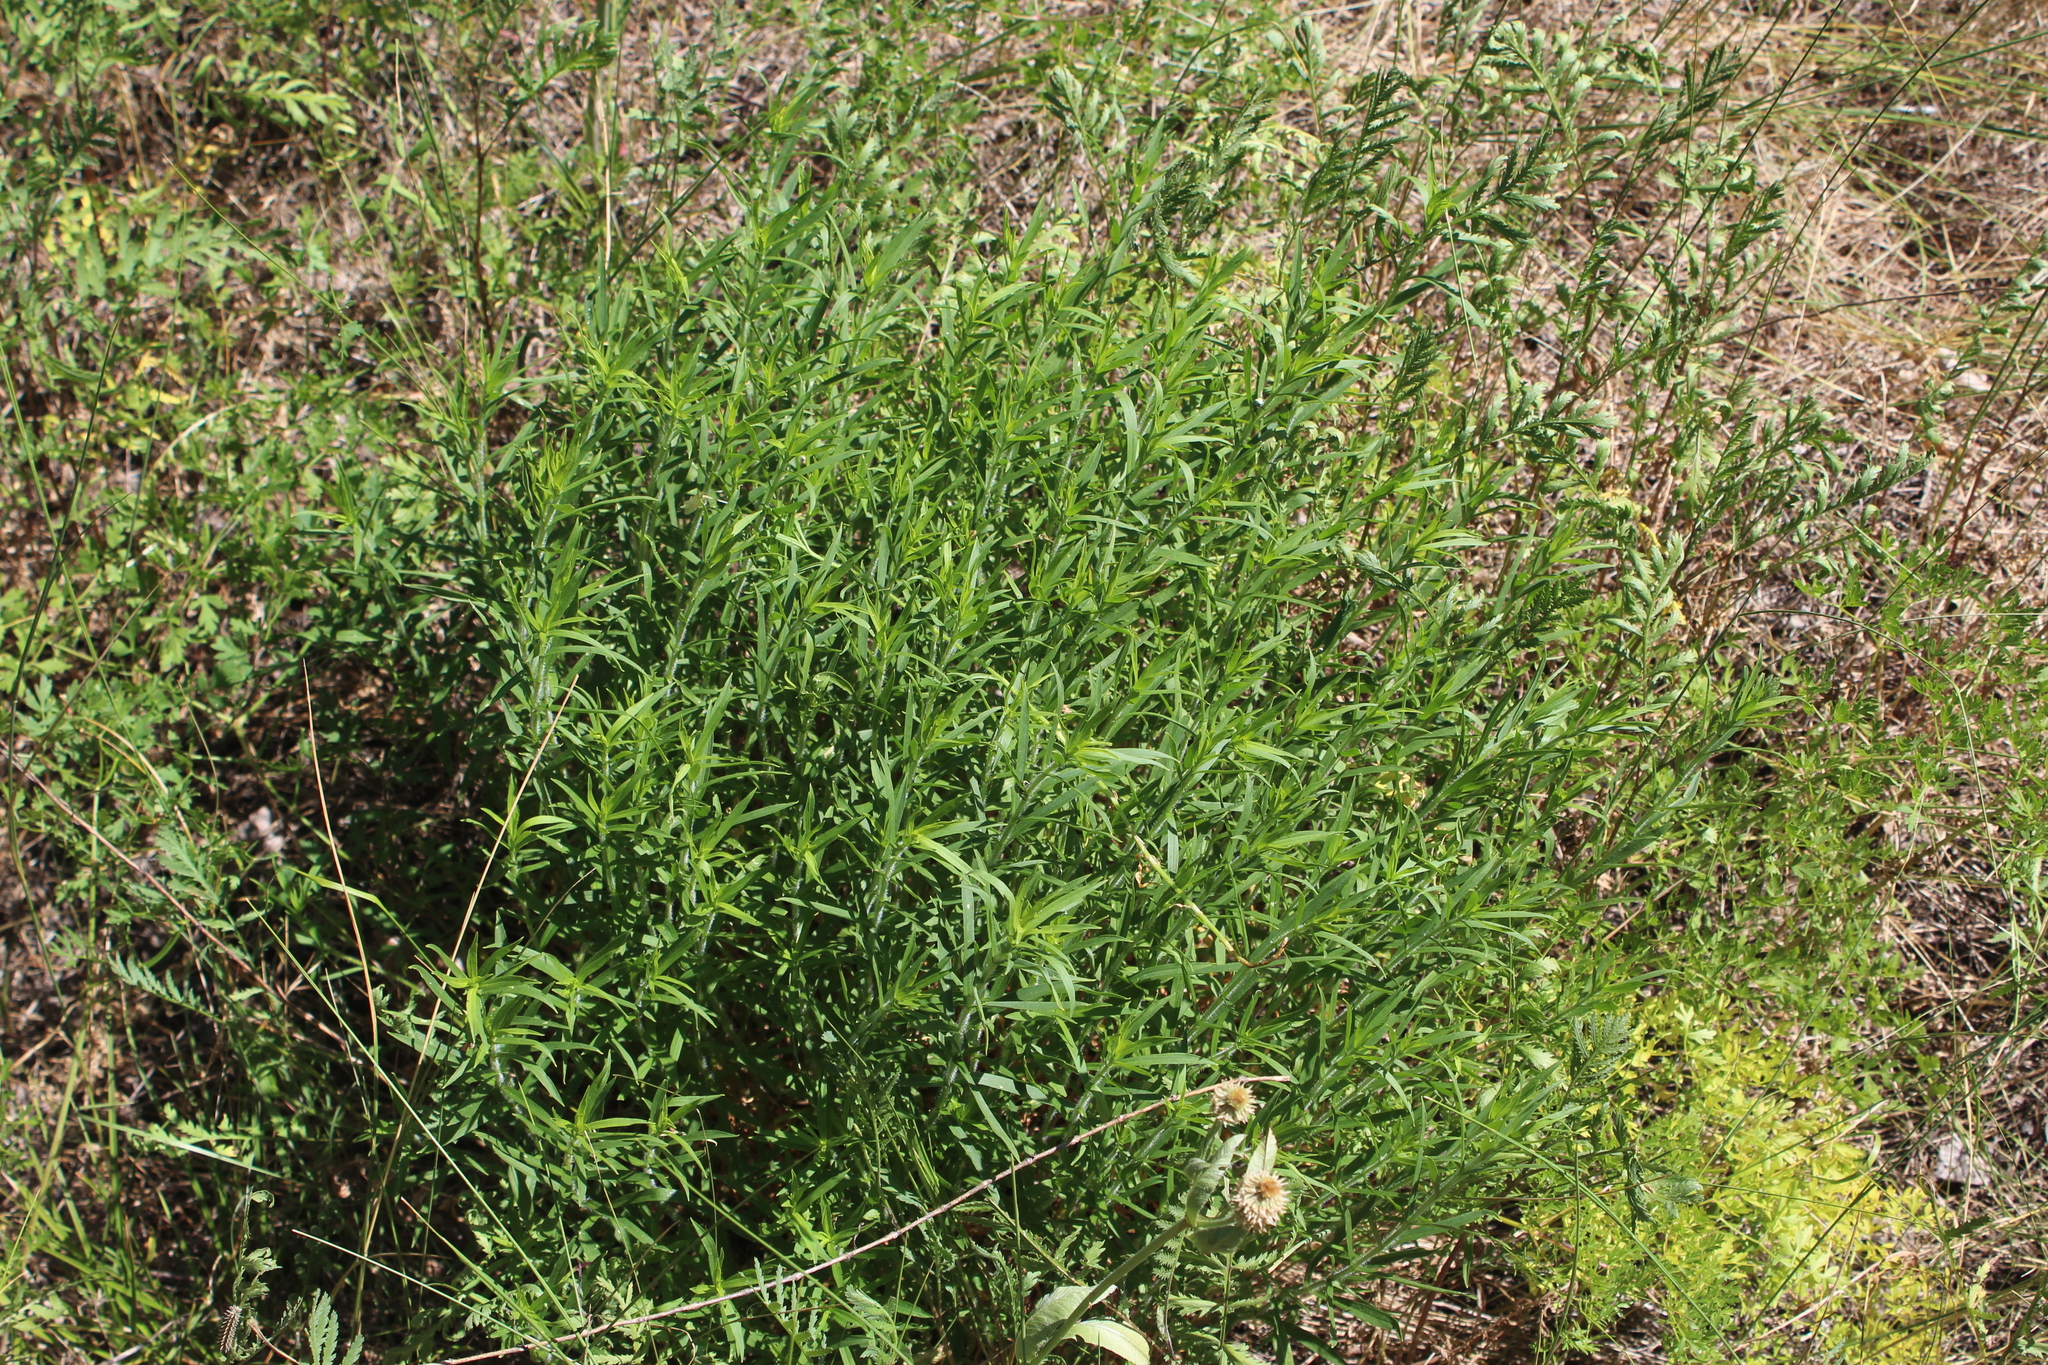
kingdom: Plantae
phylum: Tracheophyta
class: Magnoliopsida
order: Caryophyllales
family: Caryophyllaceae
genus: Silene
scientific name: Silene tatarica
